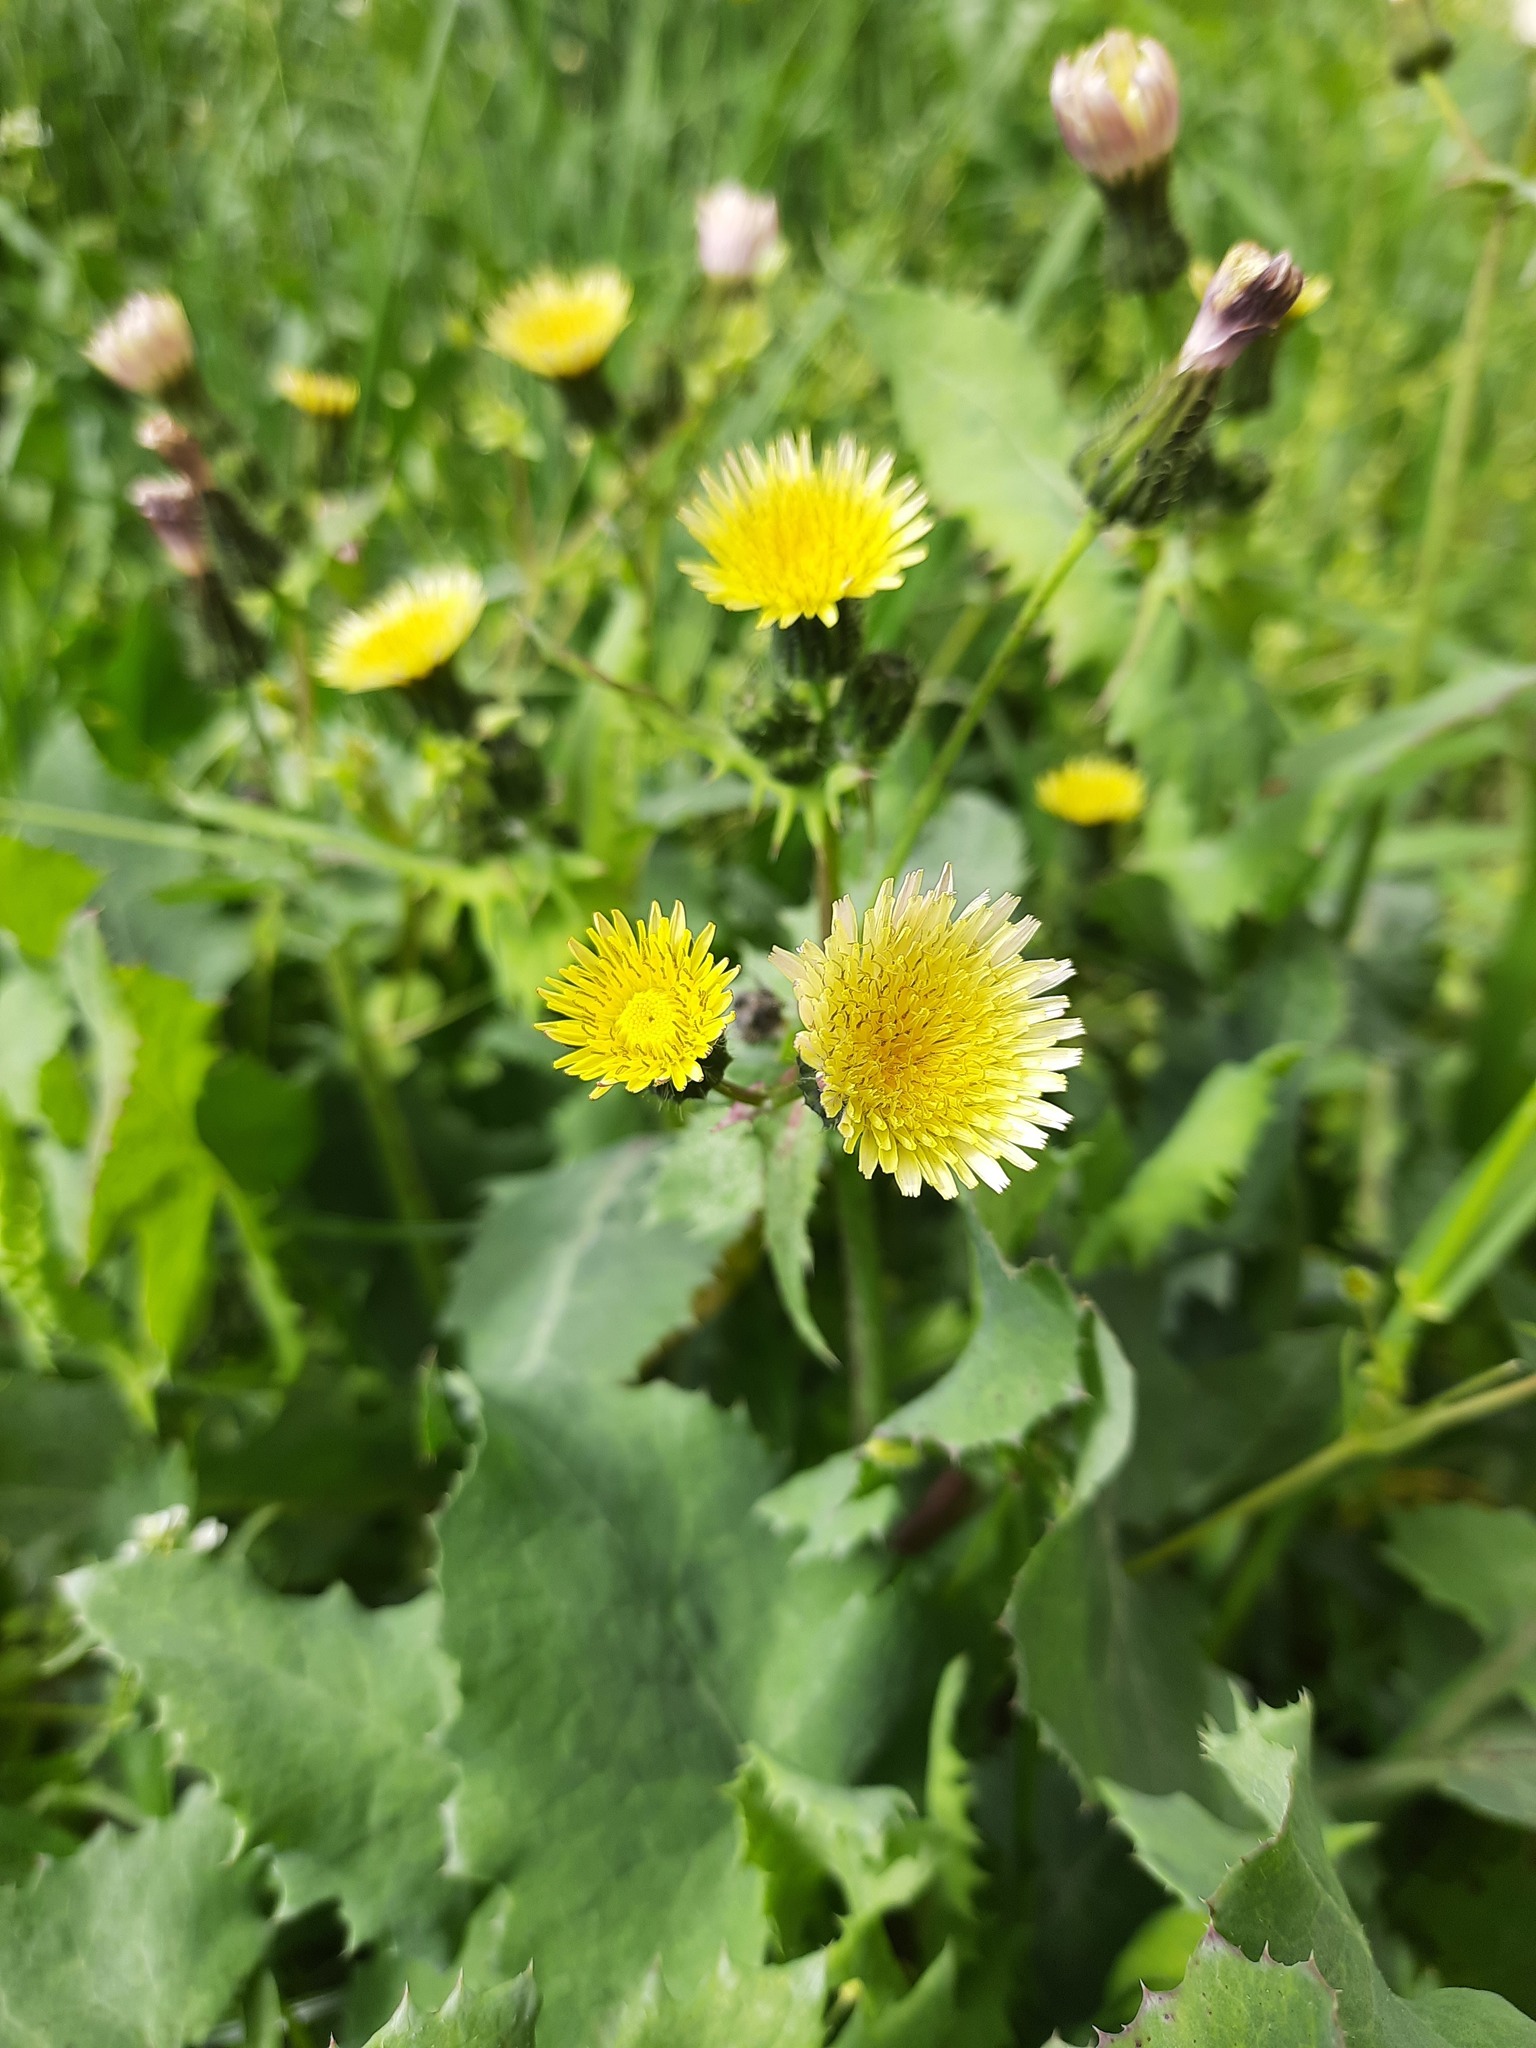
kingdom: Plantae
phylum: Tracheophyta
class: Magnoliopsida
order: Asterales
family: Asteraceae
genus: Sonchus
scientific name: Sonchus oleraceus
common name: Common sowthistle
